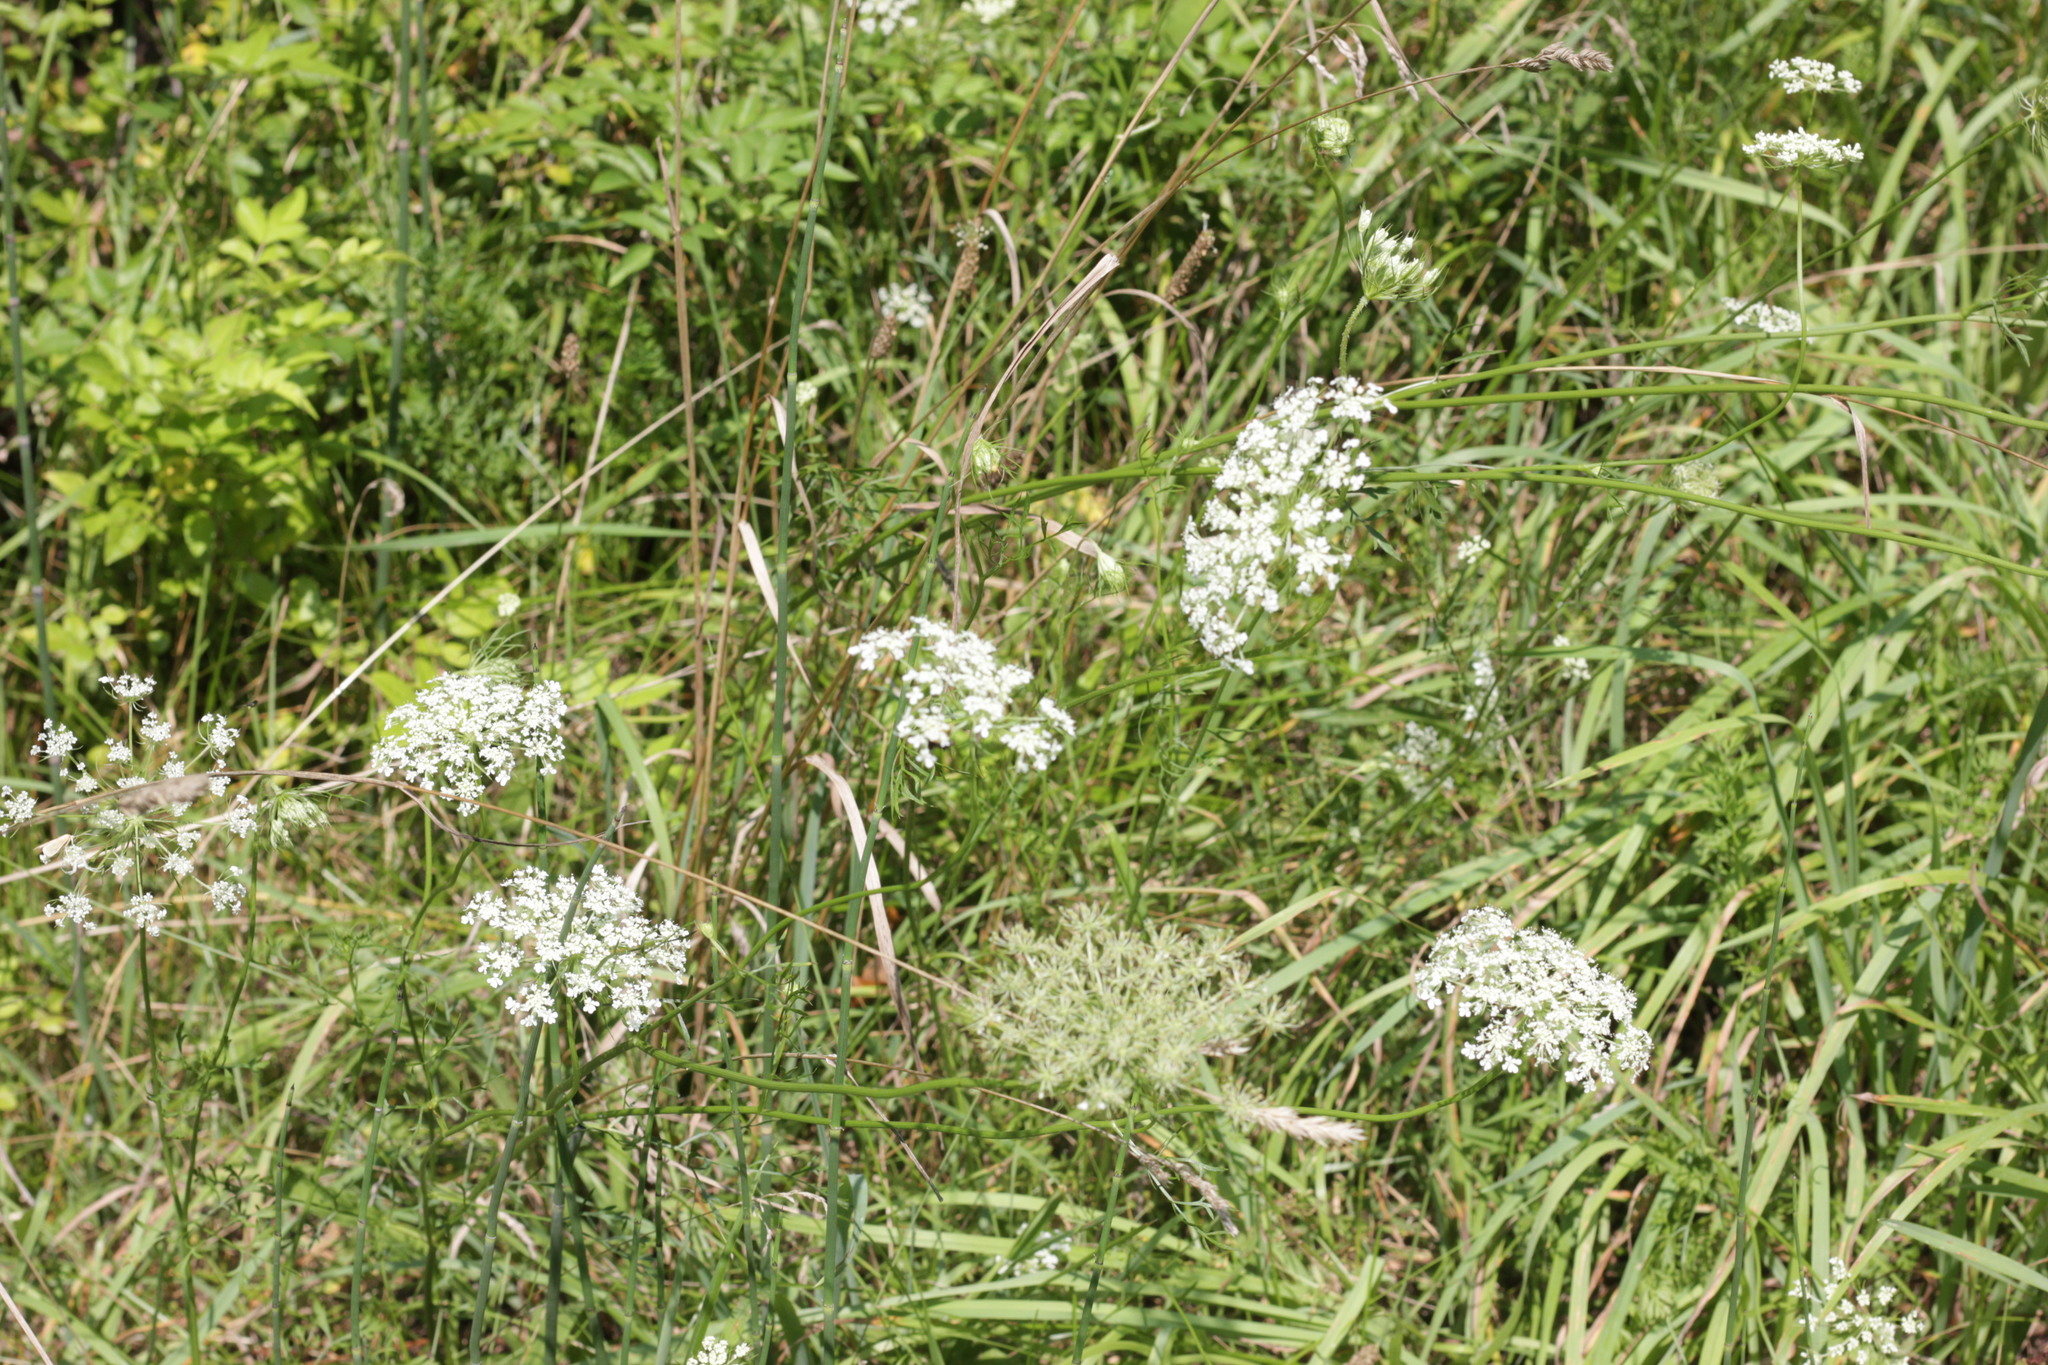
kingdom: Plantae
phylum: Tracheophyta
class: Magnoliopsida
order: Apiales
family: Apiaceae
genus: Daucus
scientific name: Daucus carota
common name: Wild carrot
